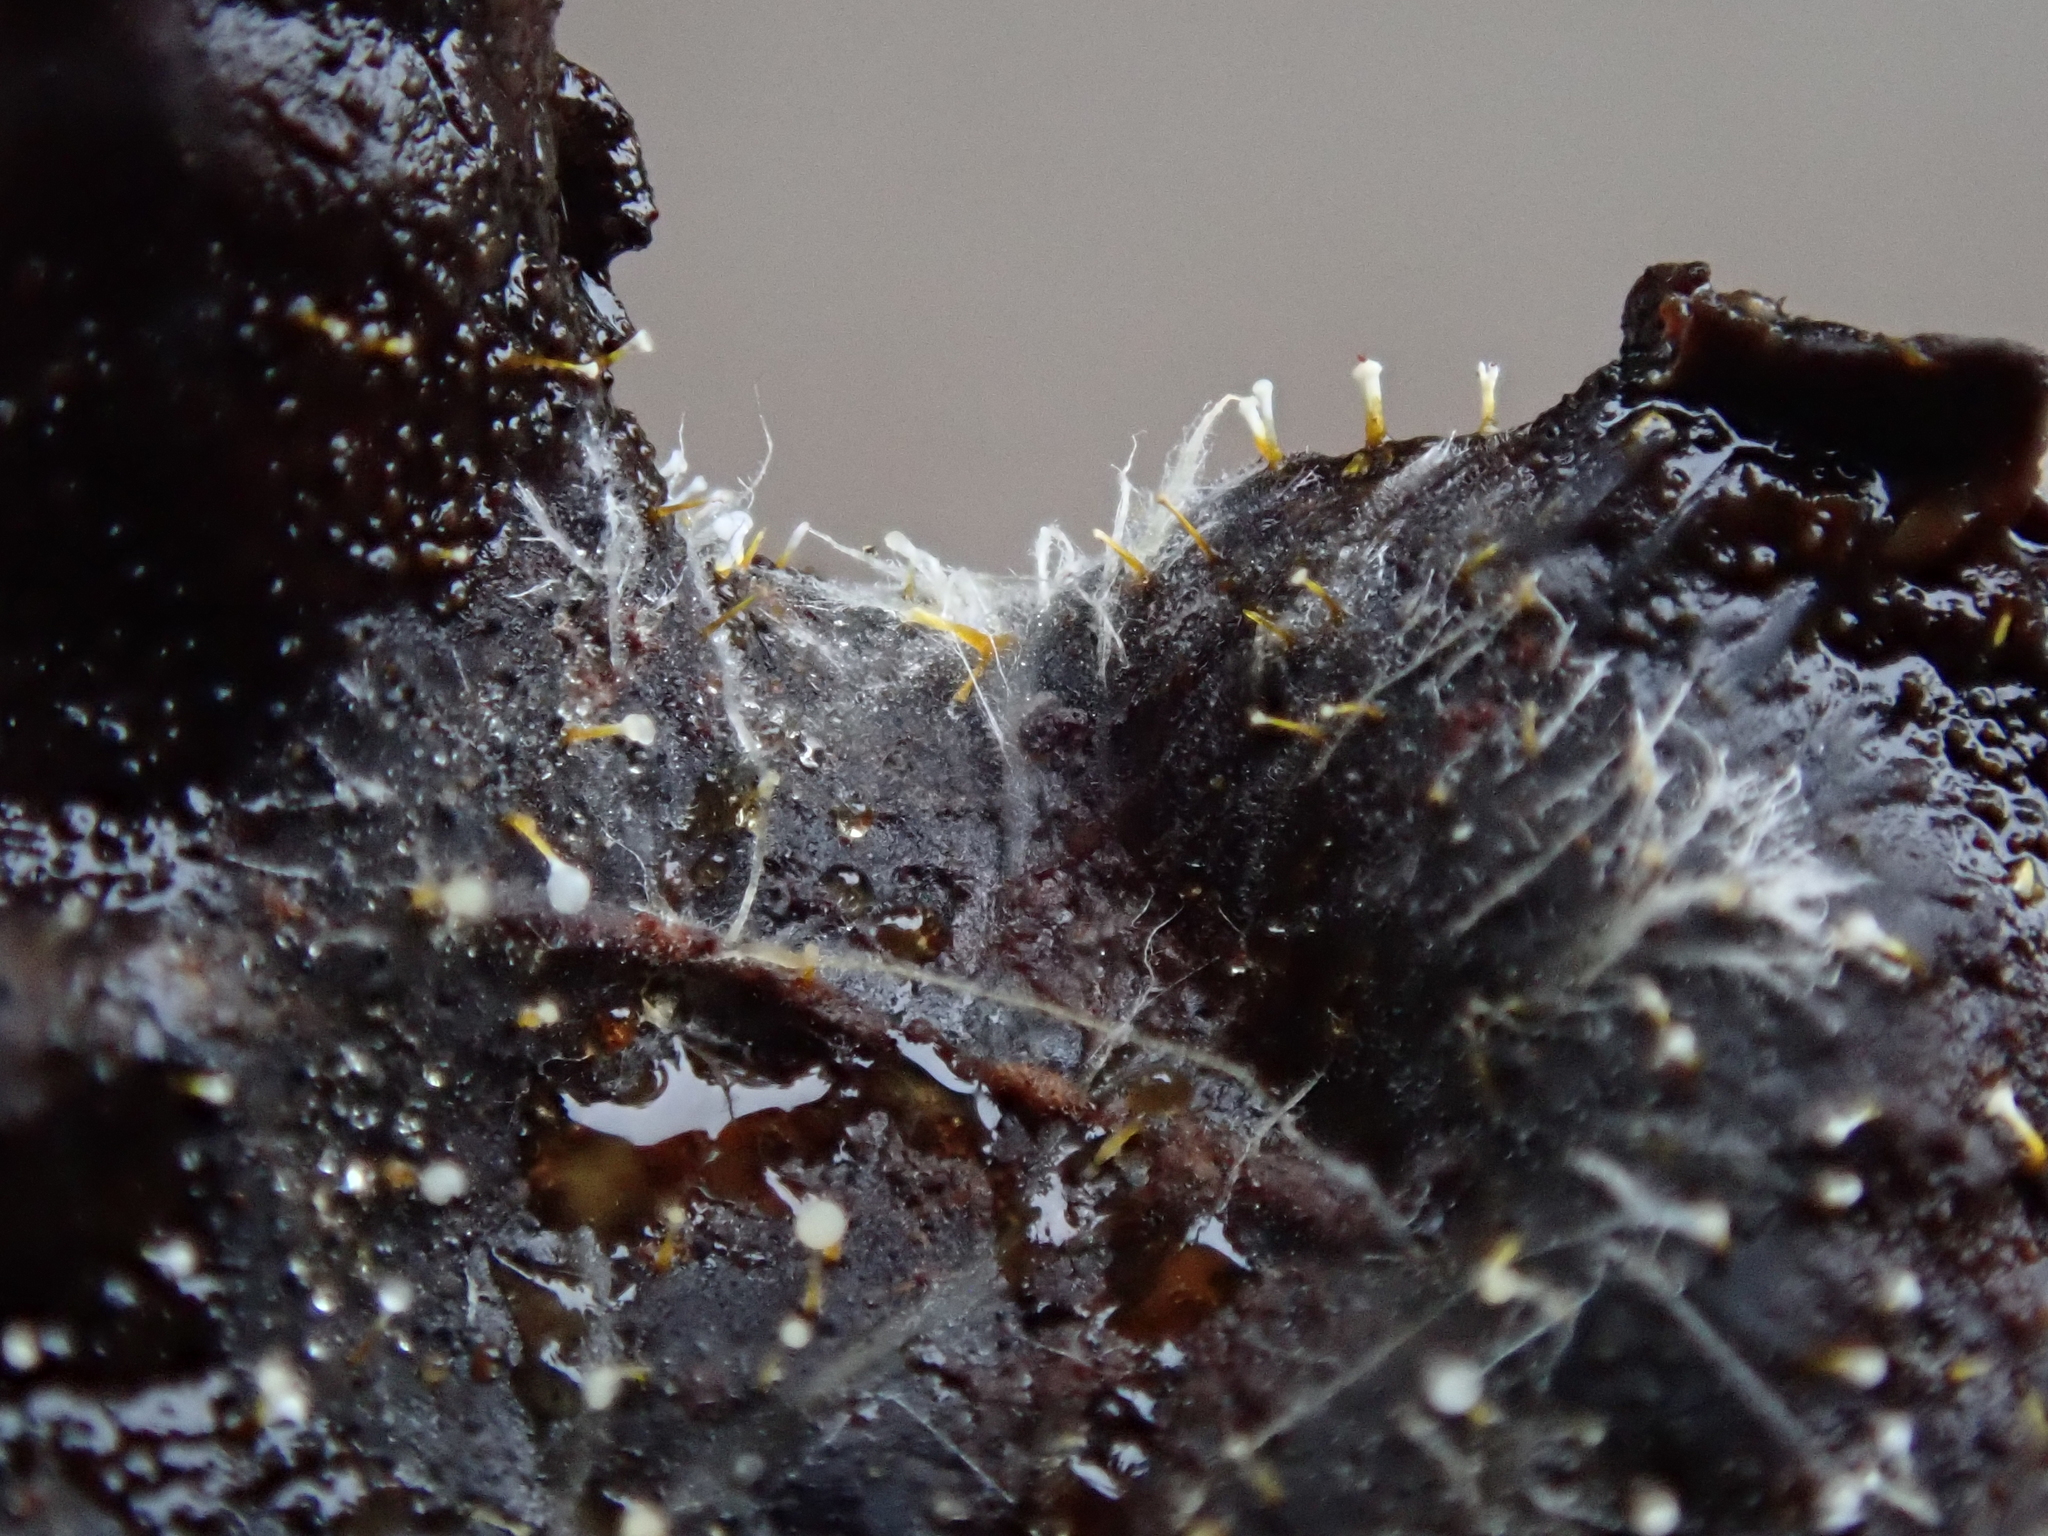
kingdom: Fungi
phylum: Ascomycota
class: Sordariomycetes
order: Hypocreales
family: Hypocreaceae
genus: Gliocladium
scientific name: Gliocladium polyporicola
